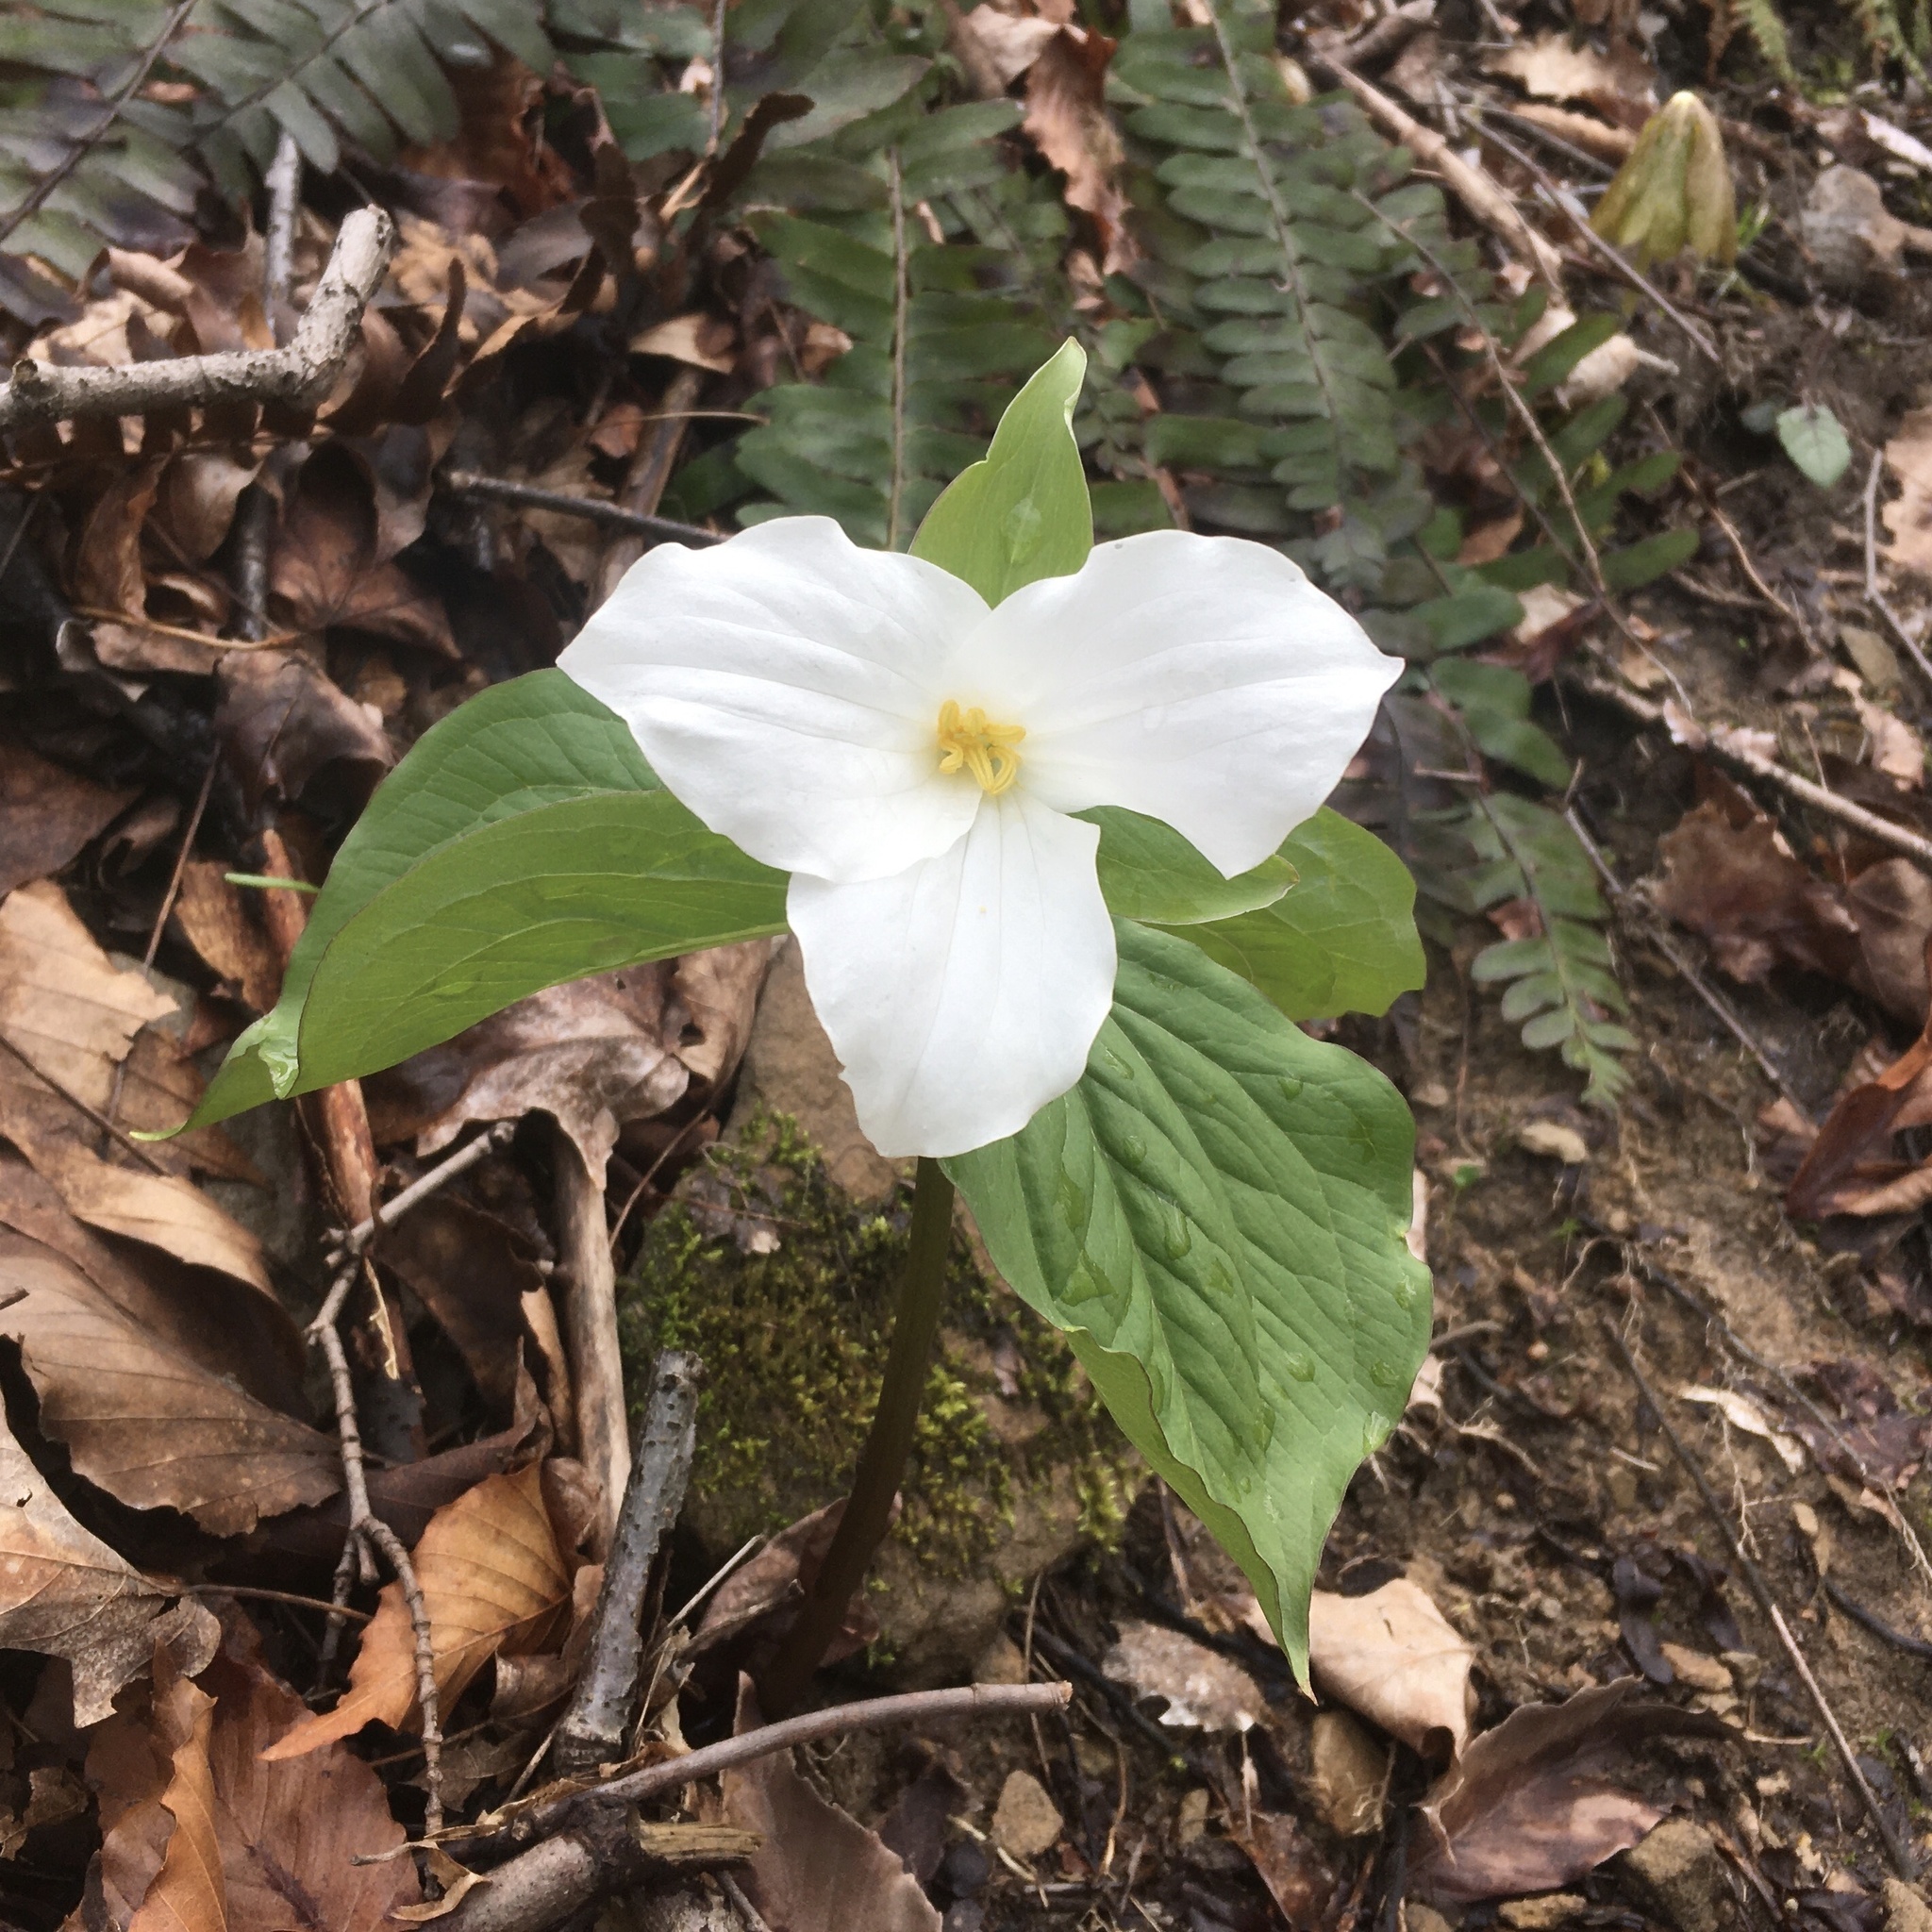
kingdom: Plantae
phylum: Tracheophyta
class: Liliopsida
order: Liliales
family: Melanthiaceae
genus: Trillium
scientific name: Trillium grandiflorum
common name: Great white trillium
